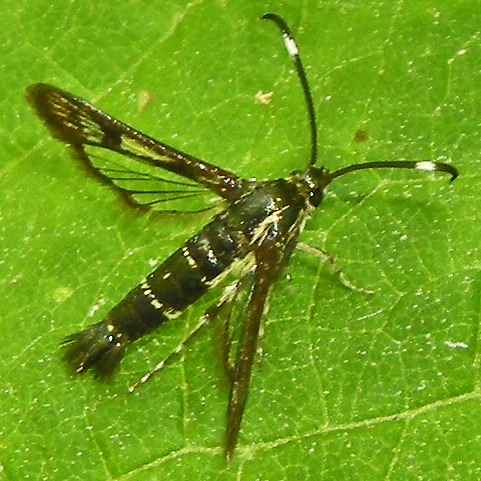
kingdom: Animalia
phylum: Arthropoda
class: Insecta
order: Lepidoptera
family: Sesiidae
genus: Carmenta
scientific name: Carmenta bassiformis
